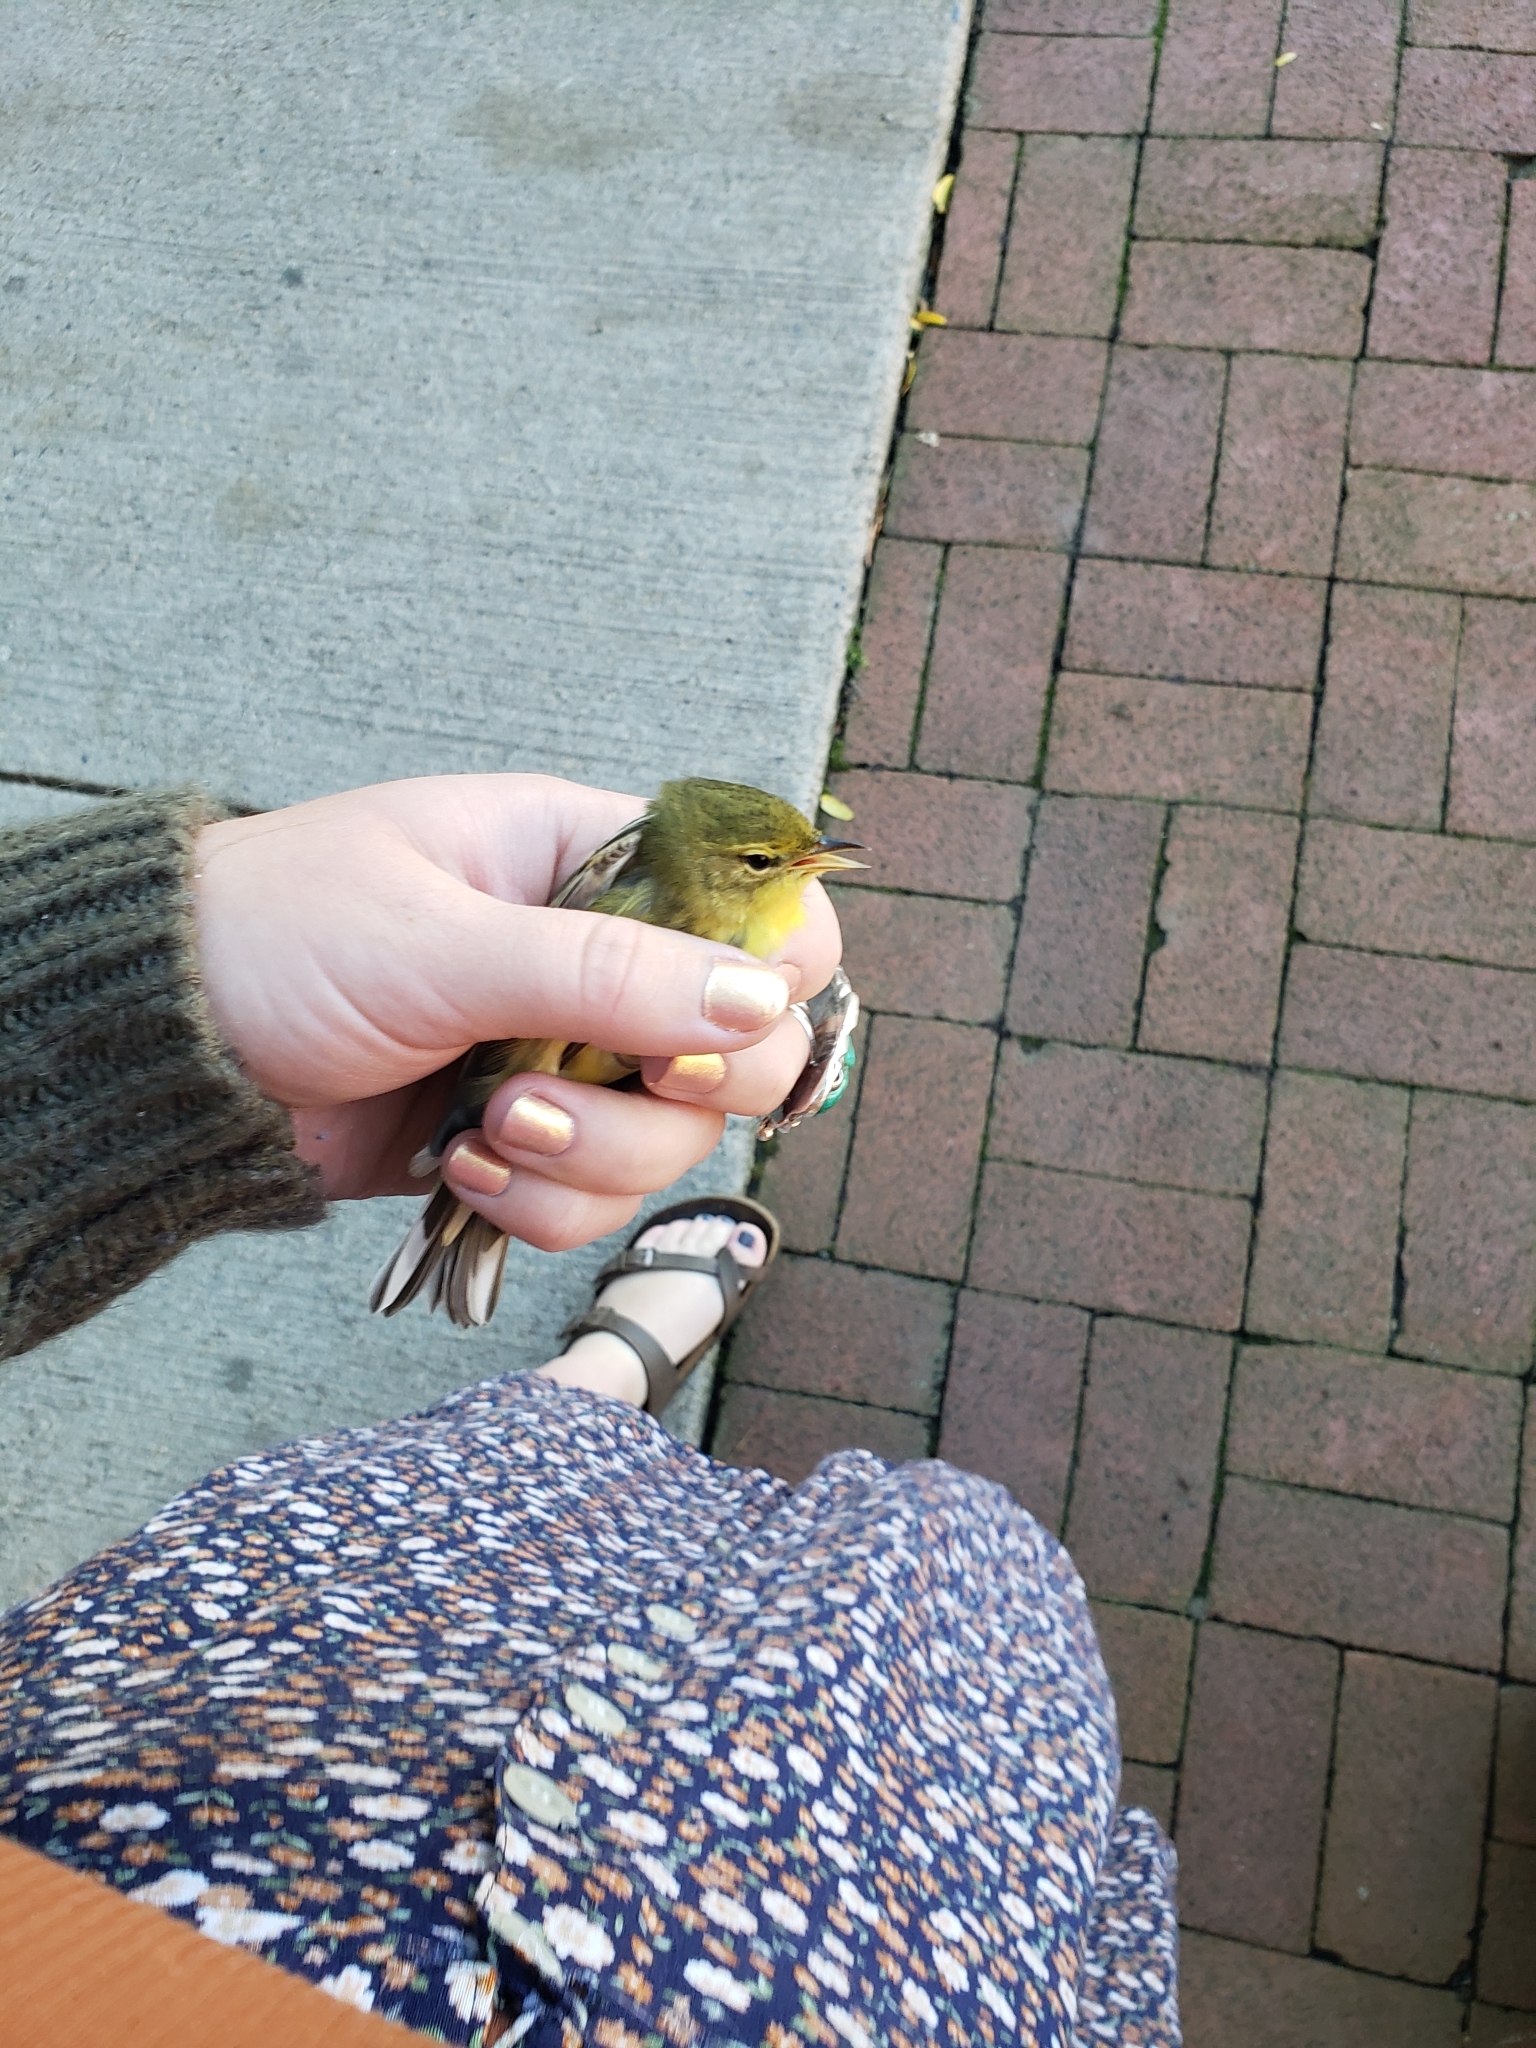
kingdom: Animalia
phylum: Chordata
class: Aves
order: Passeriformes
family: Parulidae
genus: Setophaga
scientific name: Setophaga striata
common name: Blackpoll warbler
